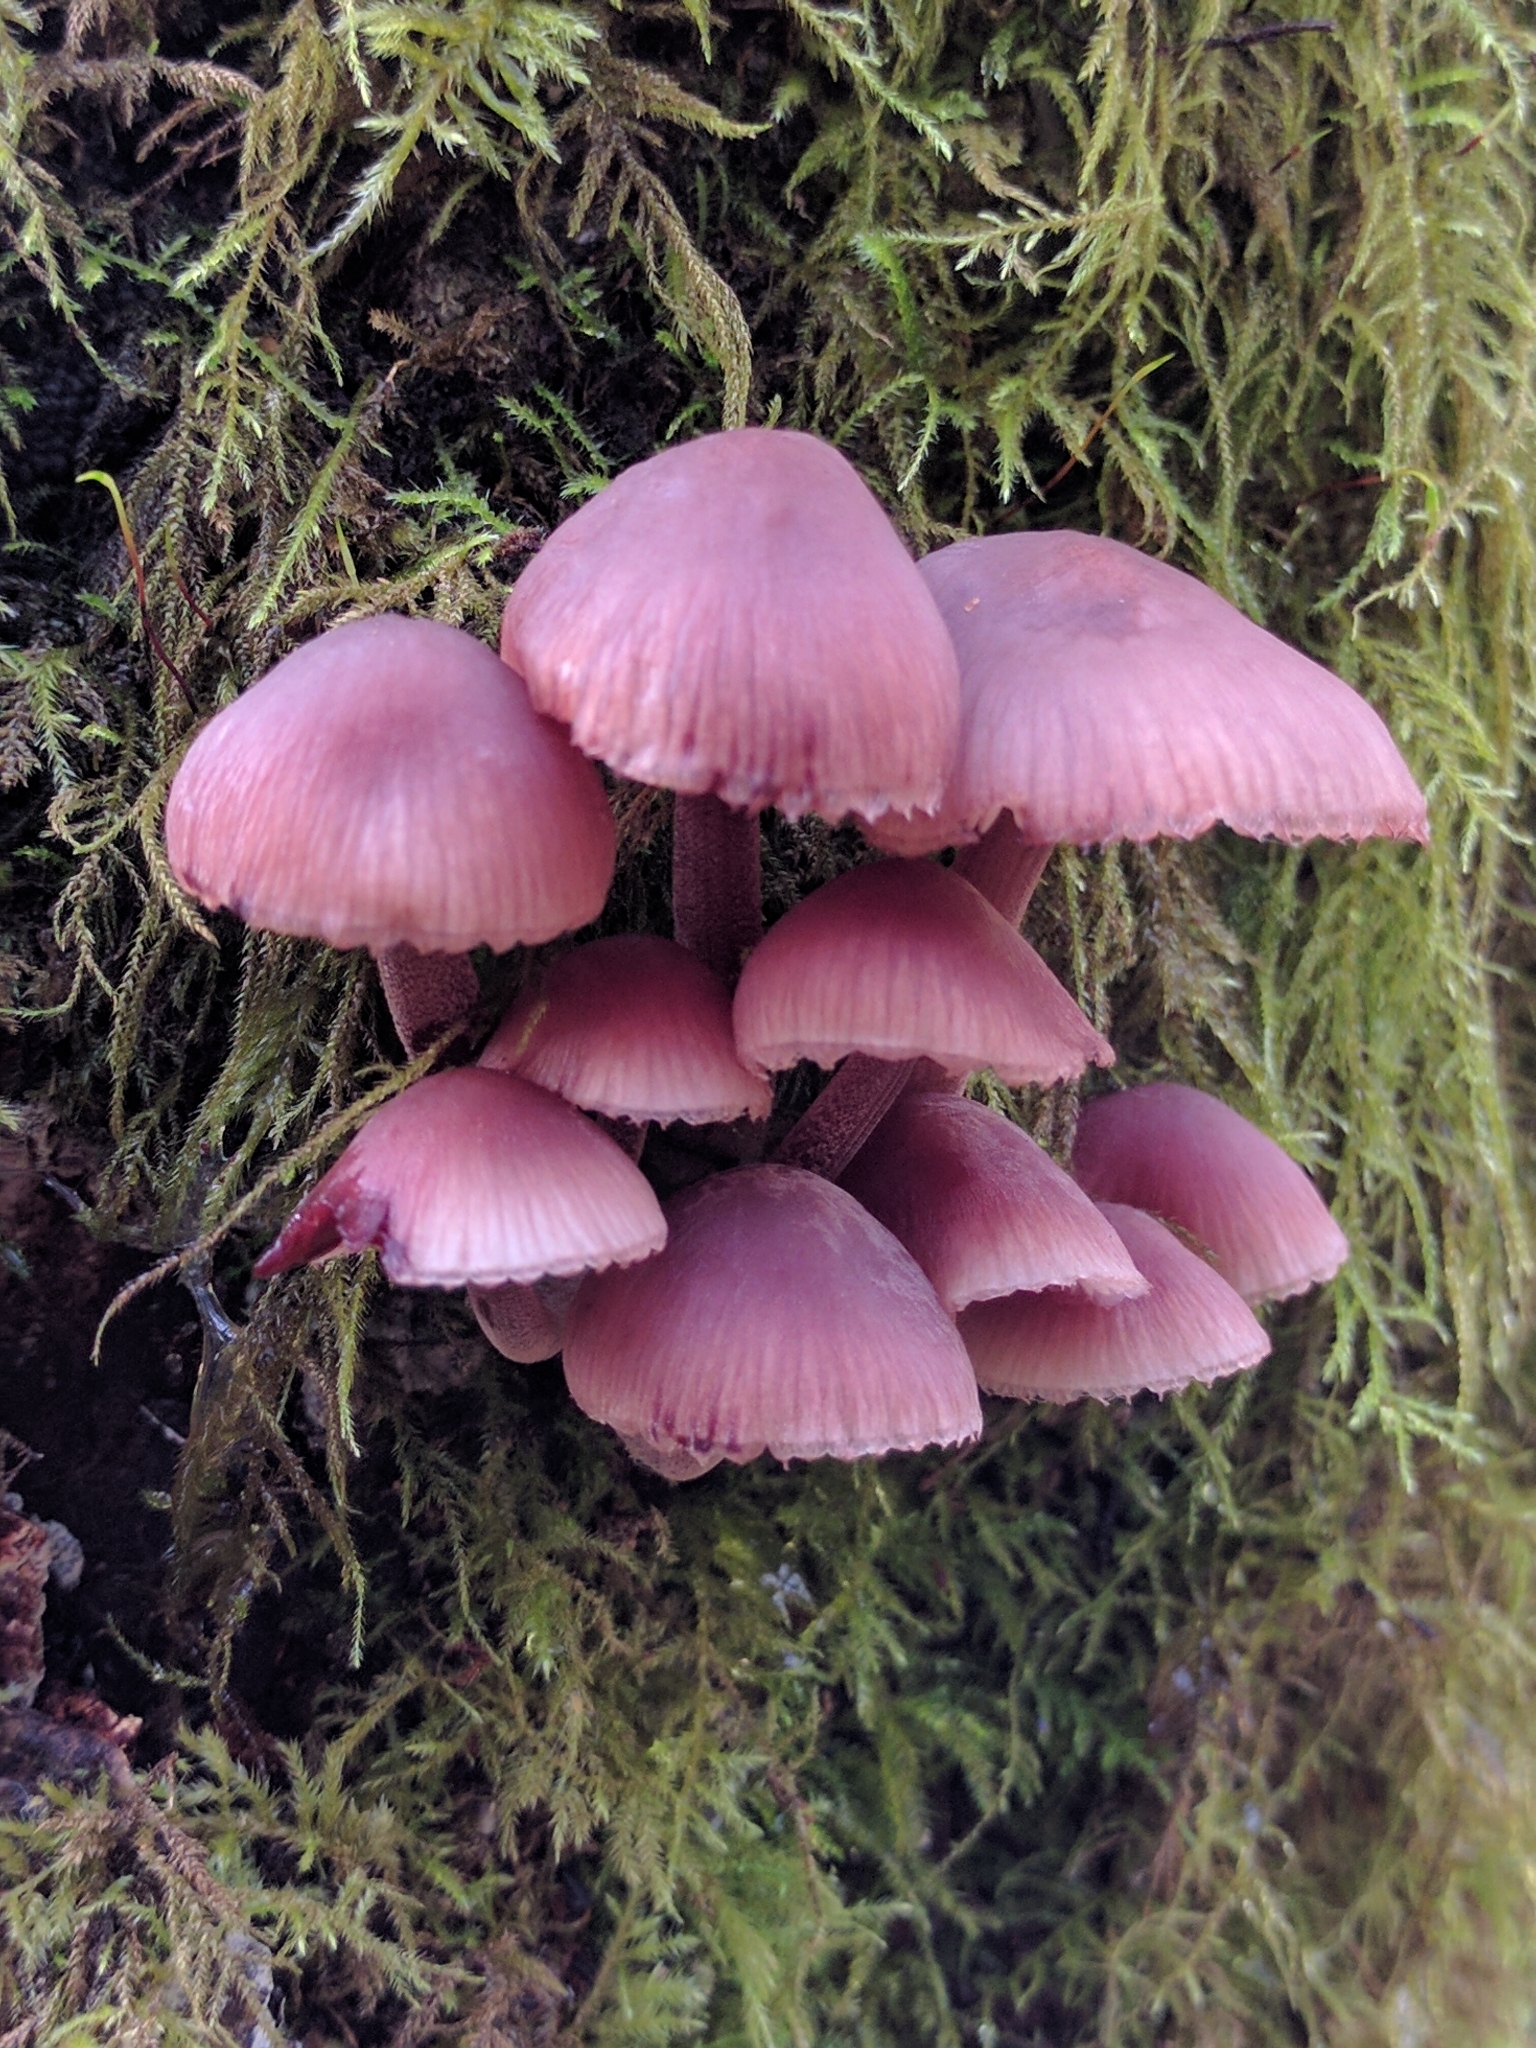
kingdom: Fungi
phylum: Basidiomycota
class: Agaricomycetes
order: Agaricales
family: Mycenaceae
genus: Mycena
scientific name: Mycena haematopus
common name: Burgundydrop bonnet
